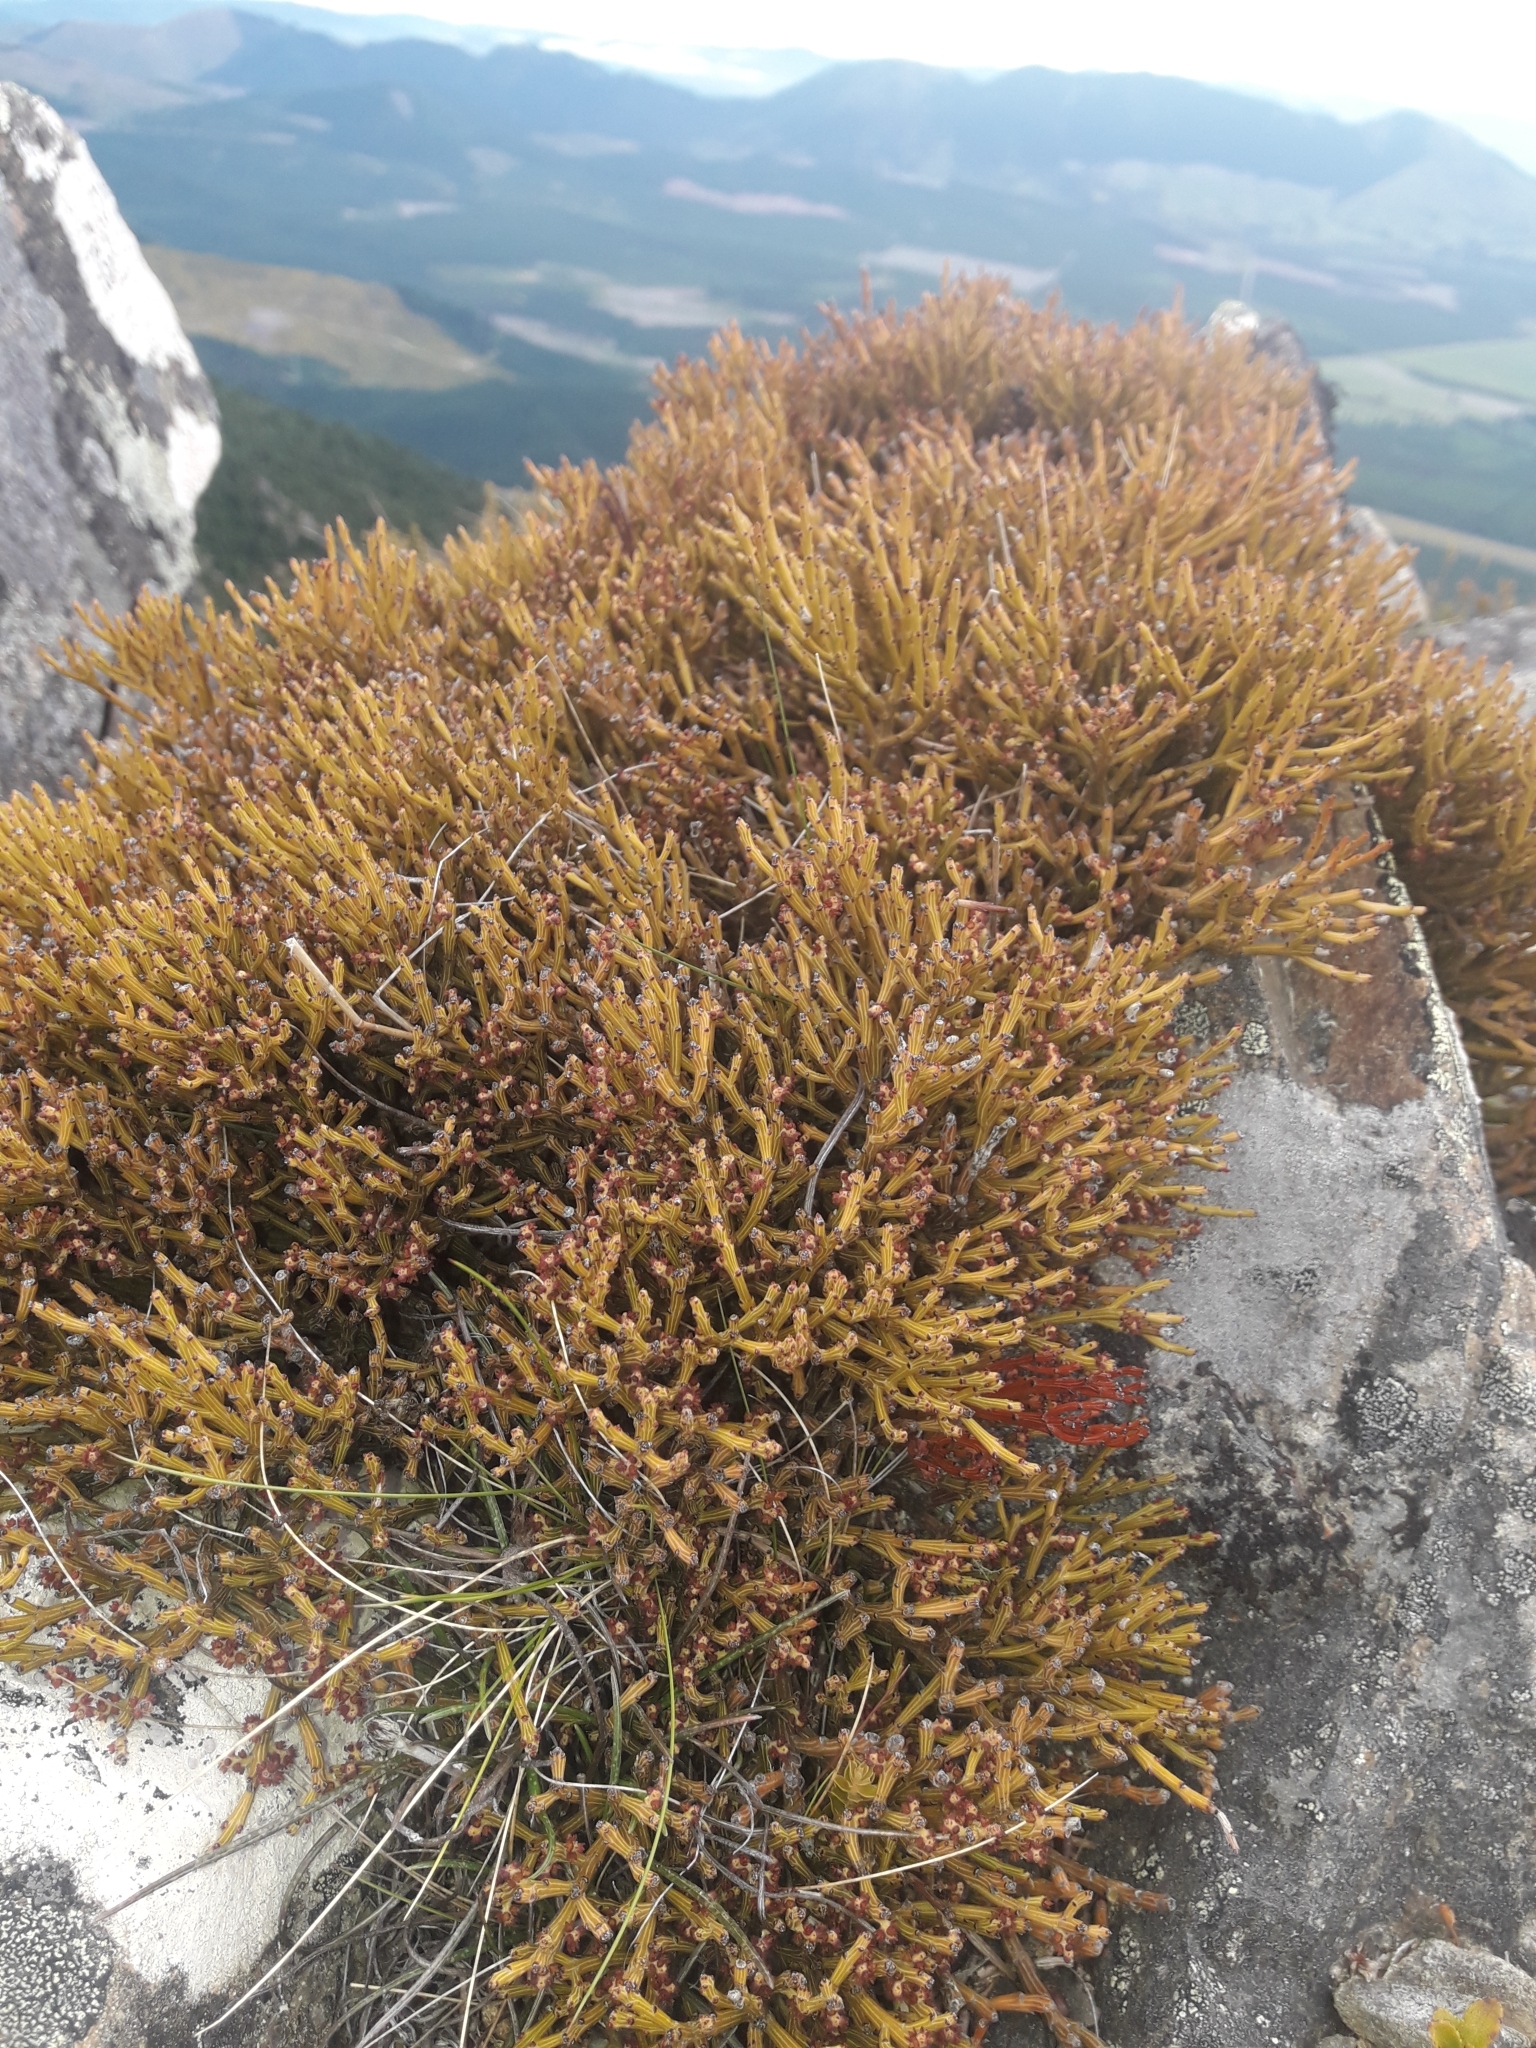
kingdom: Plantae
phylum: Tracheophyta
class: Magnoliopsida
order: Santalales
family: Santalaceae
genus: Exocarpos
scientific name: Exocarpos bidwillii
